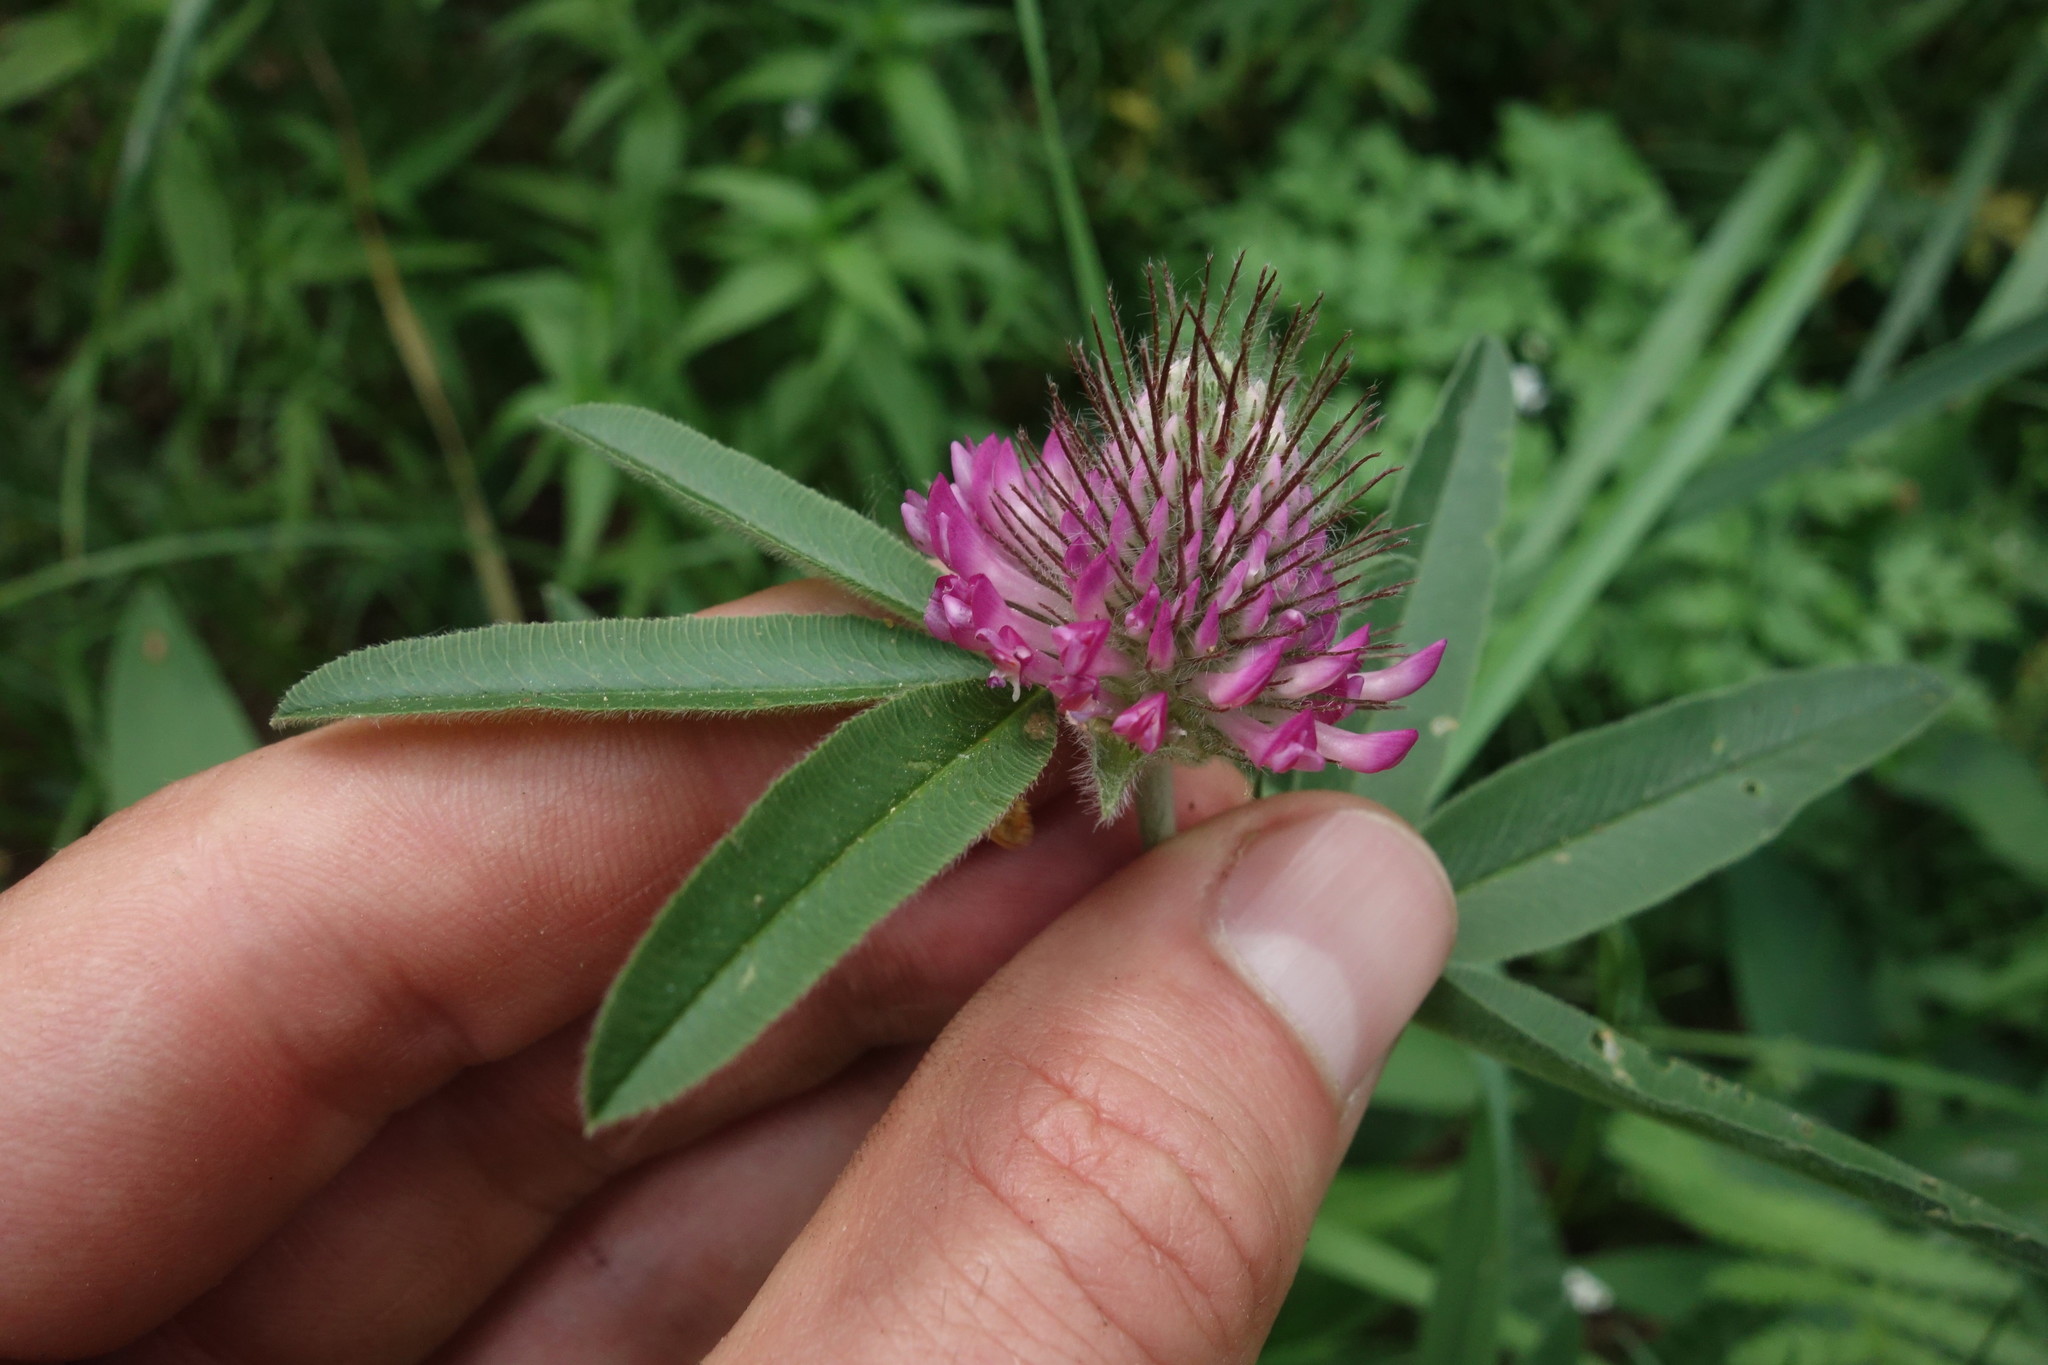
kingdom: Plantae
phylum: Tracheophyta
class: Magnoliopsida
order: Fabales
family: Fabaceae
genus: Trifolium
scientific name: Trifolium alpestre
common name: Owl-head clover
